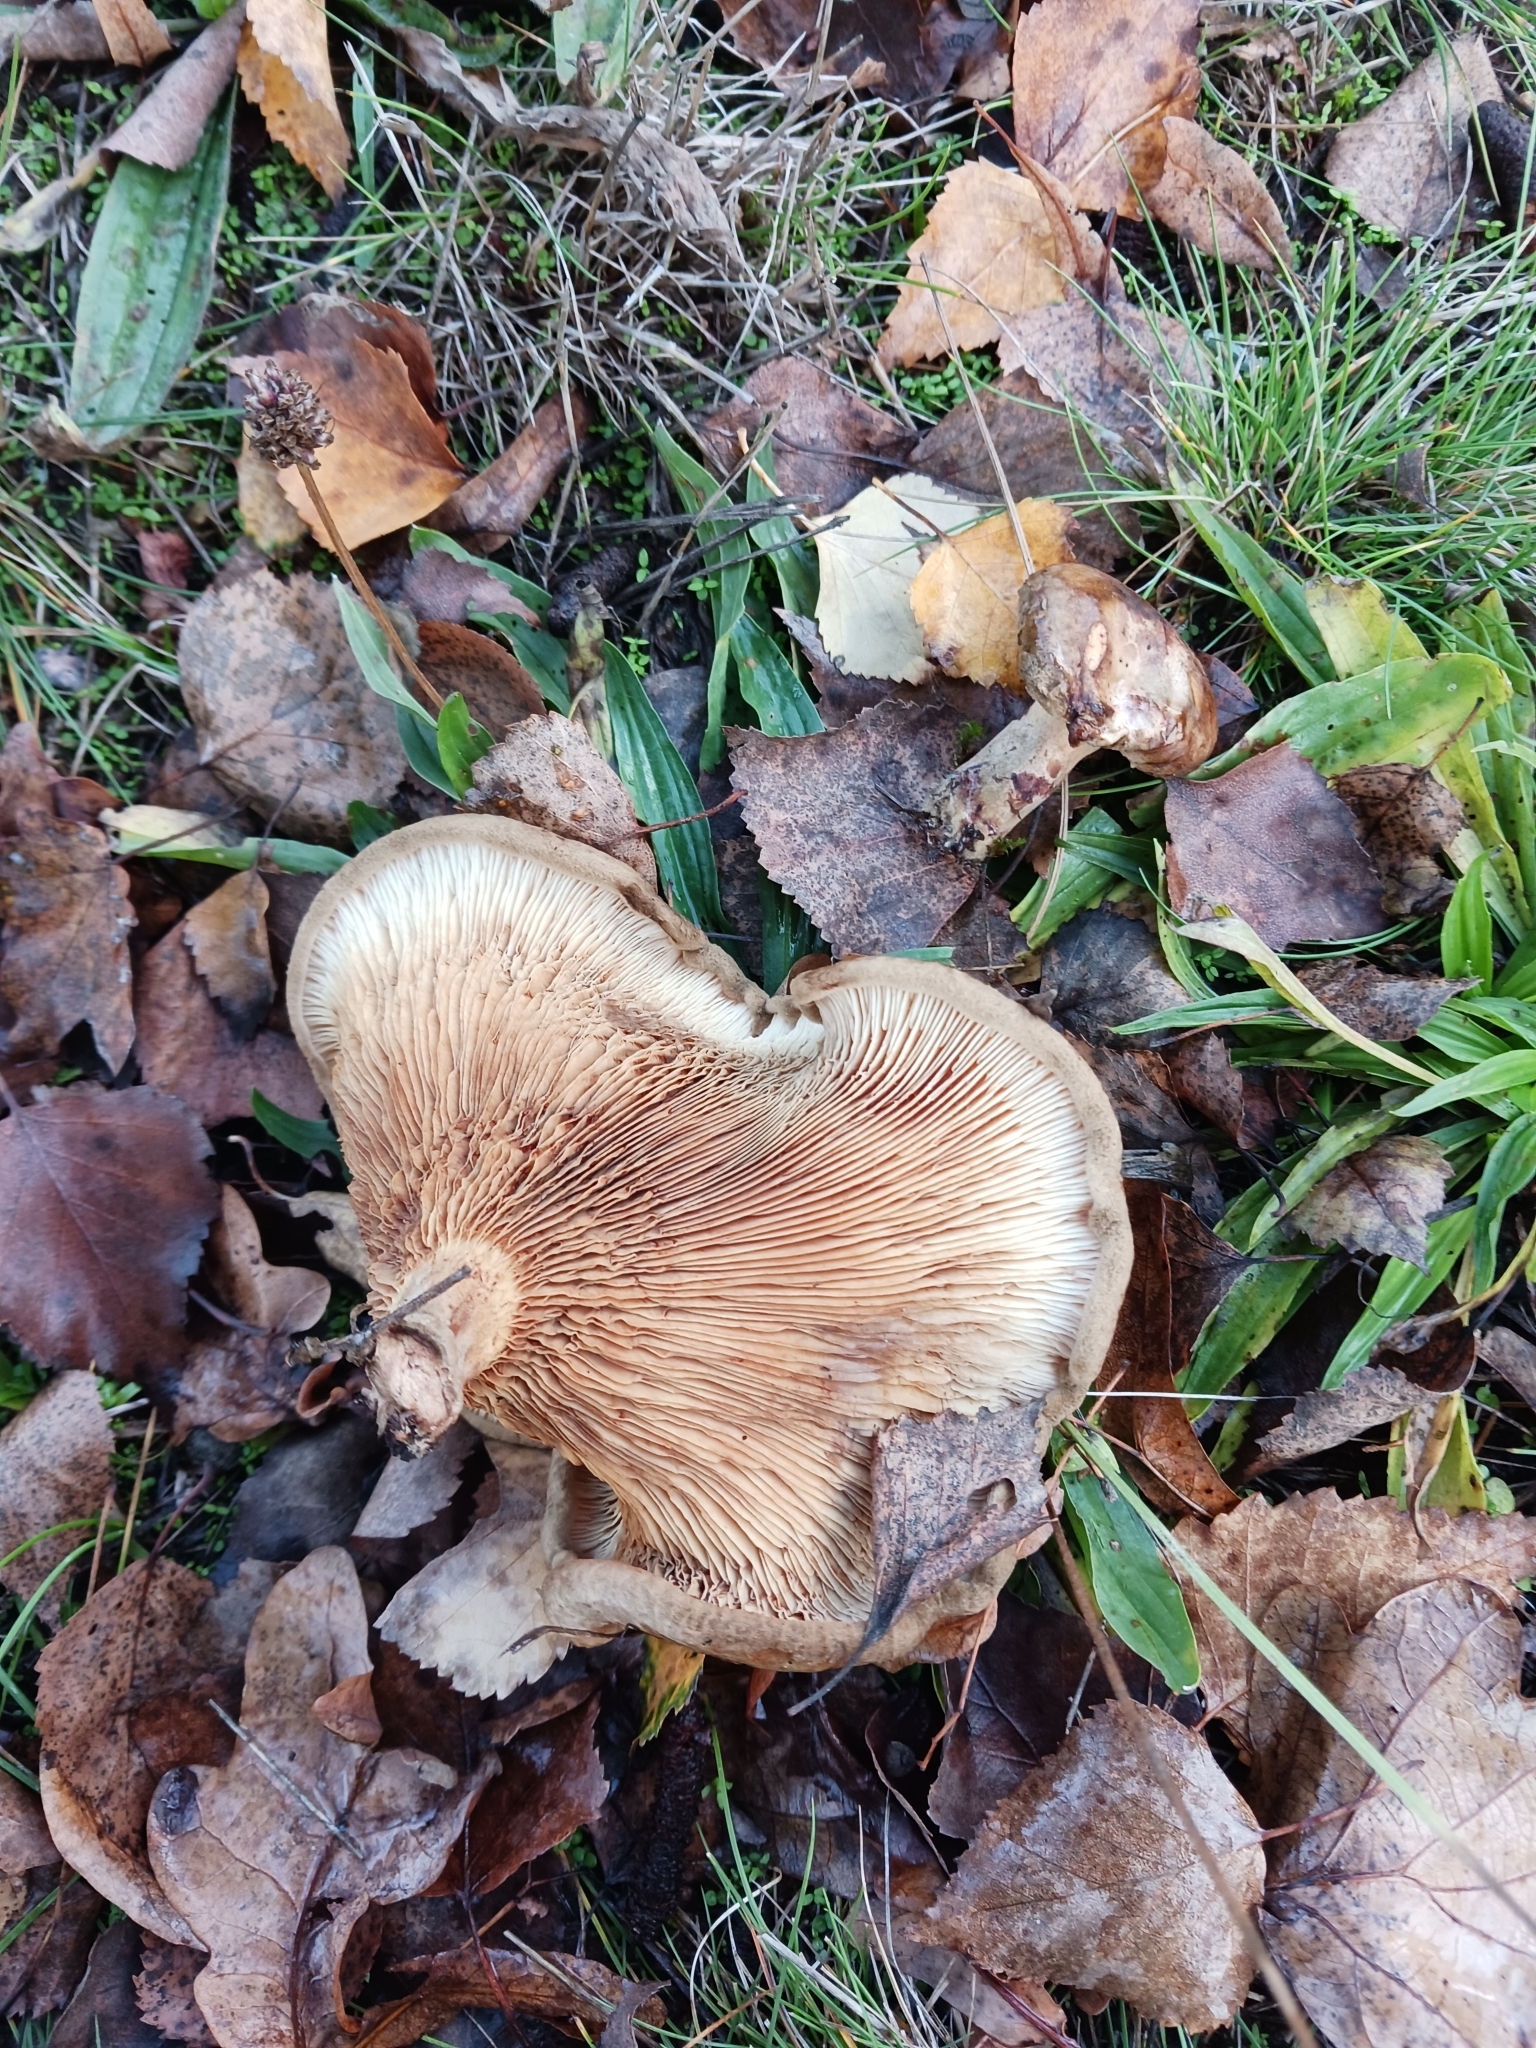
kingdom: Fungi
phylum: Basidiomycota
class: Agaricomycetes
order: Boletales
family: Paxillaceae
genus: Paxillus
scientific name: Paxillus involutus
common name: Brown roll rim
